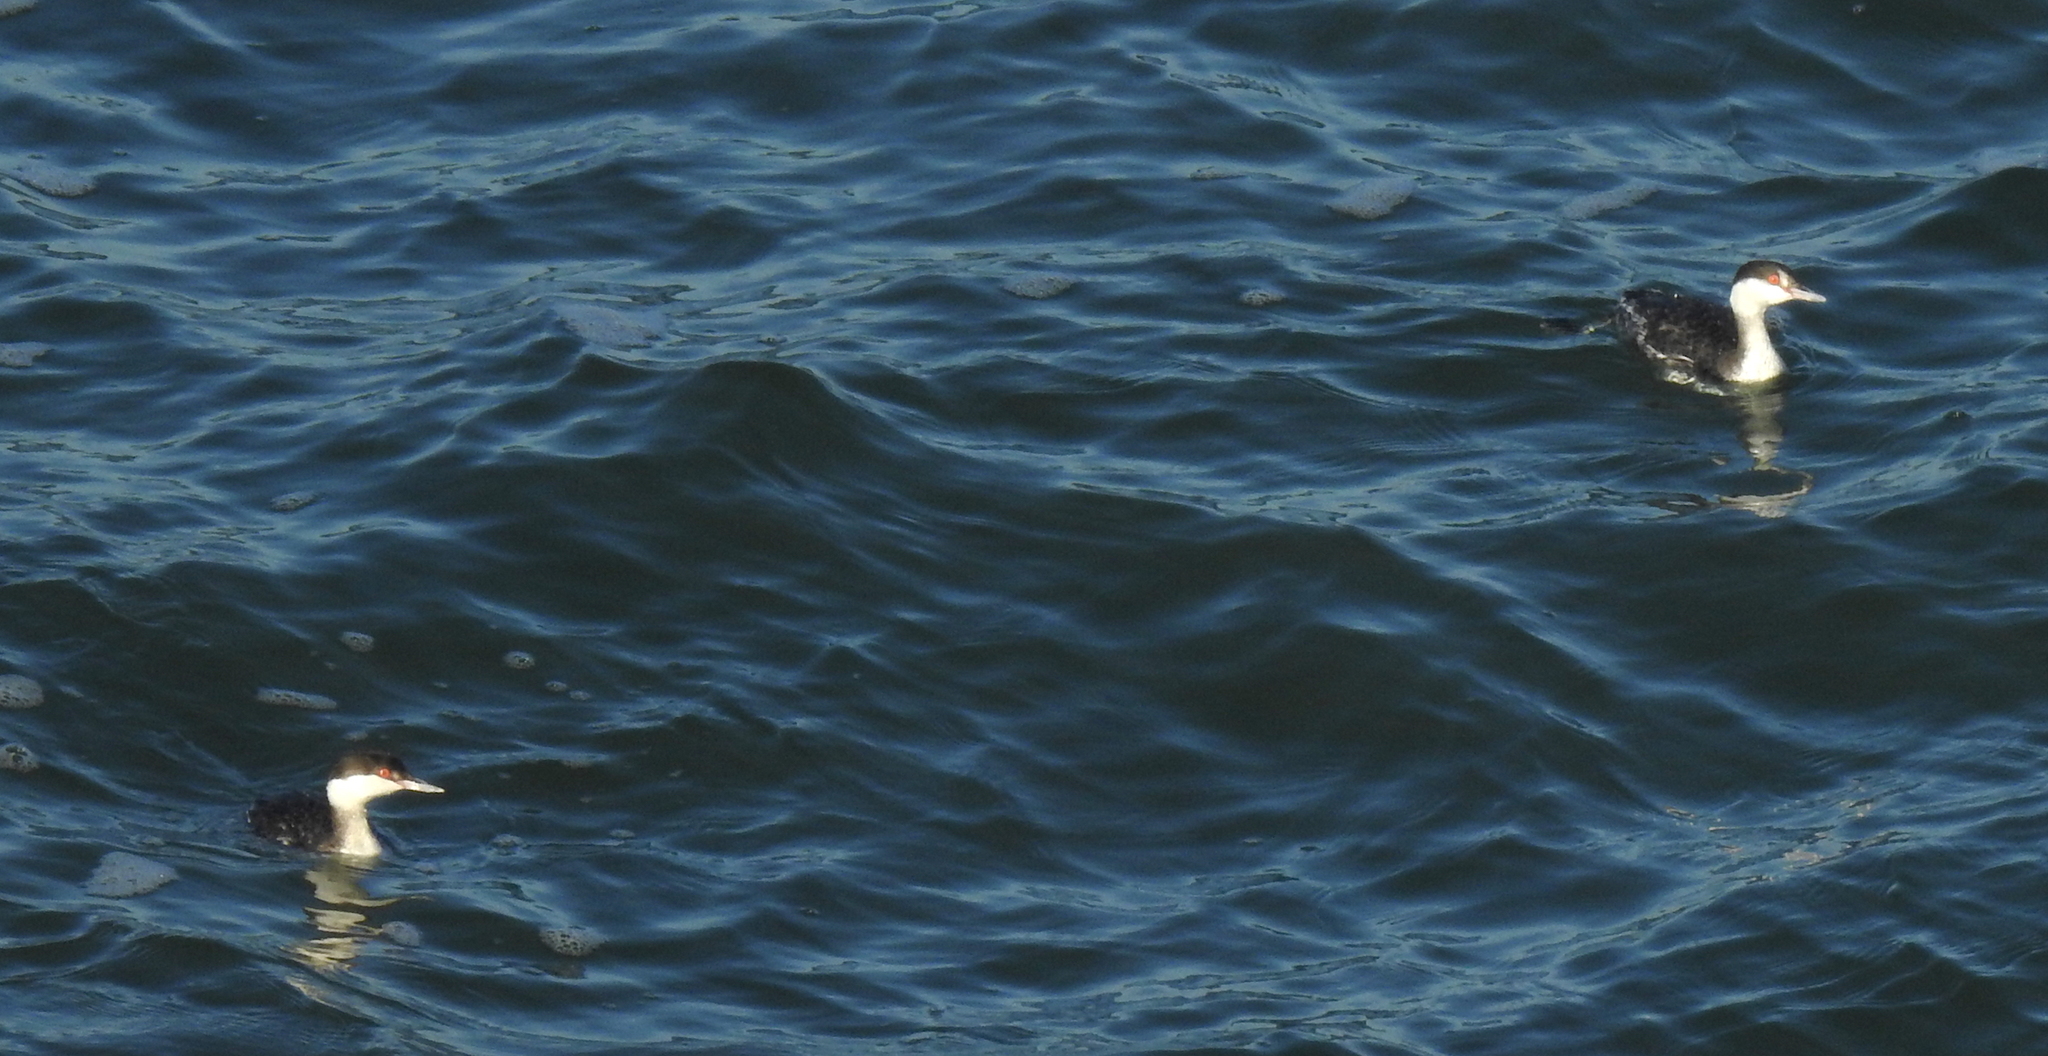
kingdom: Animalia
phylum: Chordata
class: Aves
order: Podicipediformes
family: Podicipedidae
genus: Podiceps
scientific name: Podiceps auritus
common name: Horned grebe
